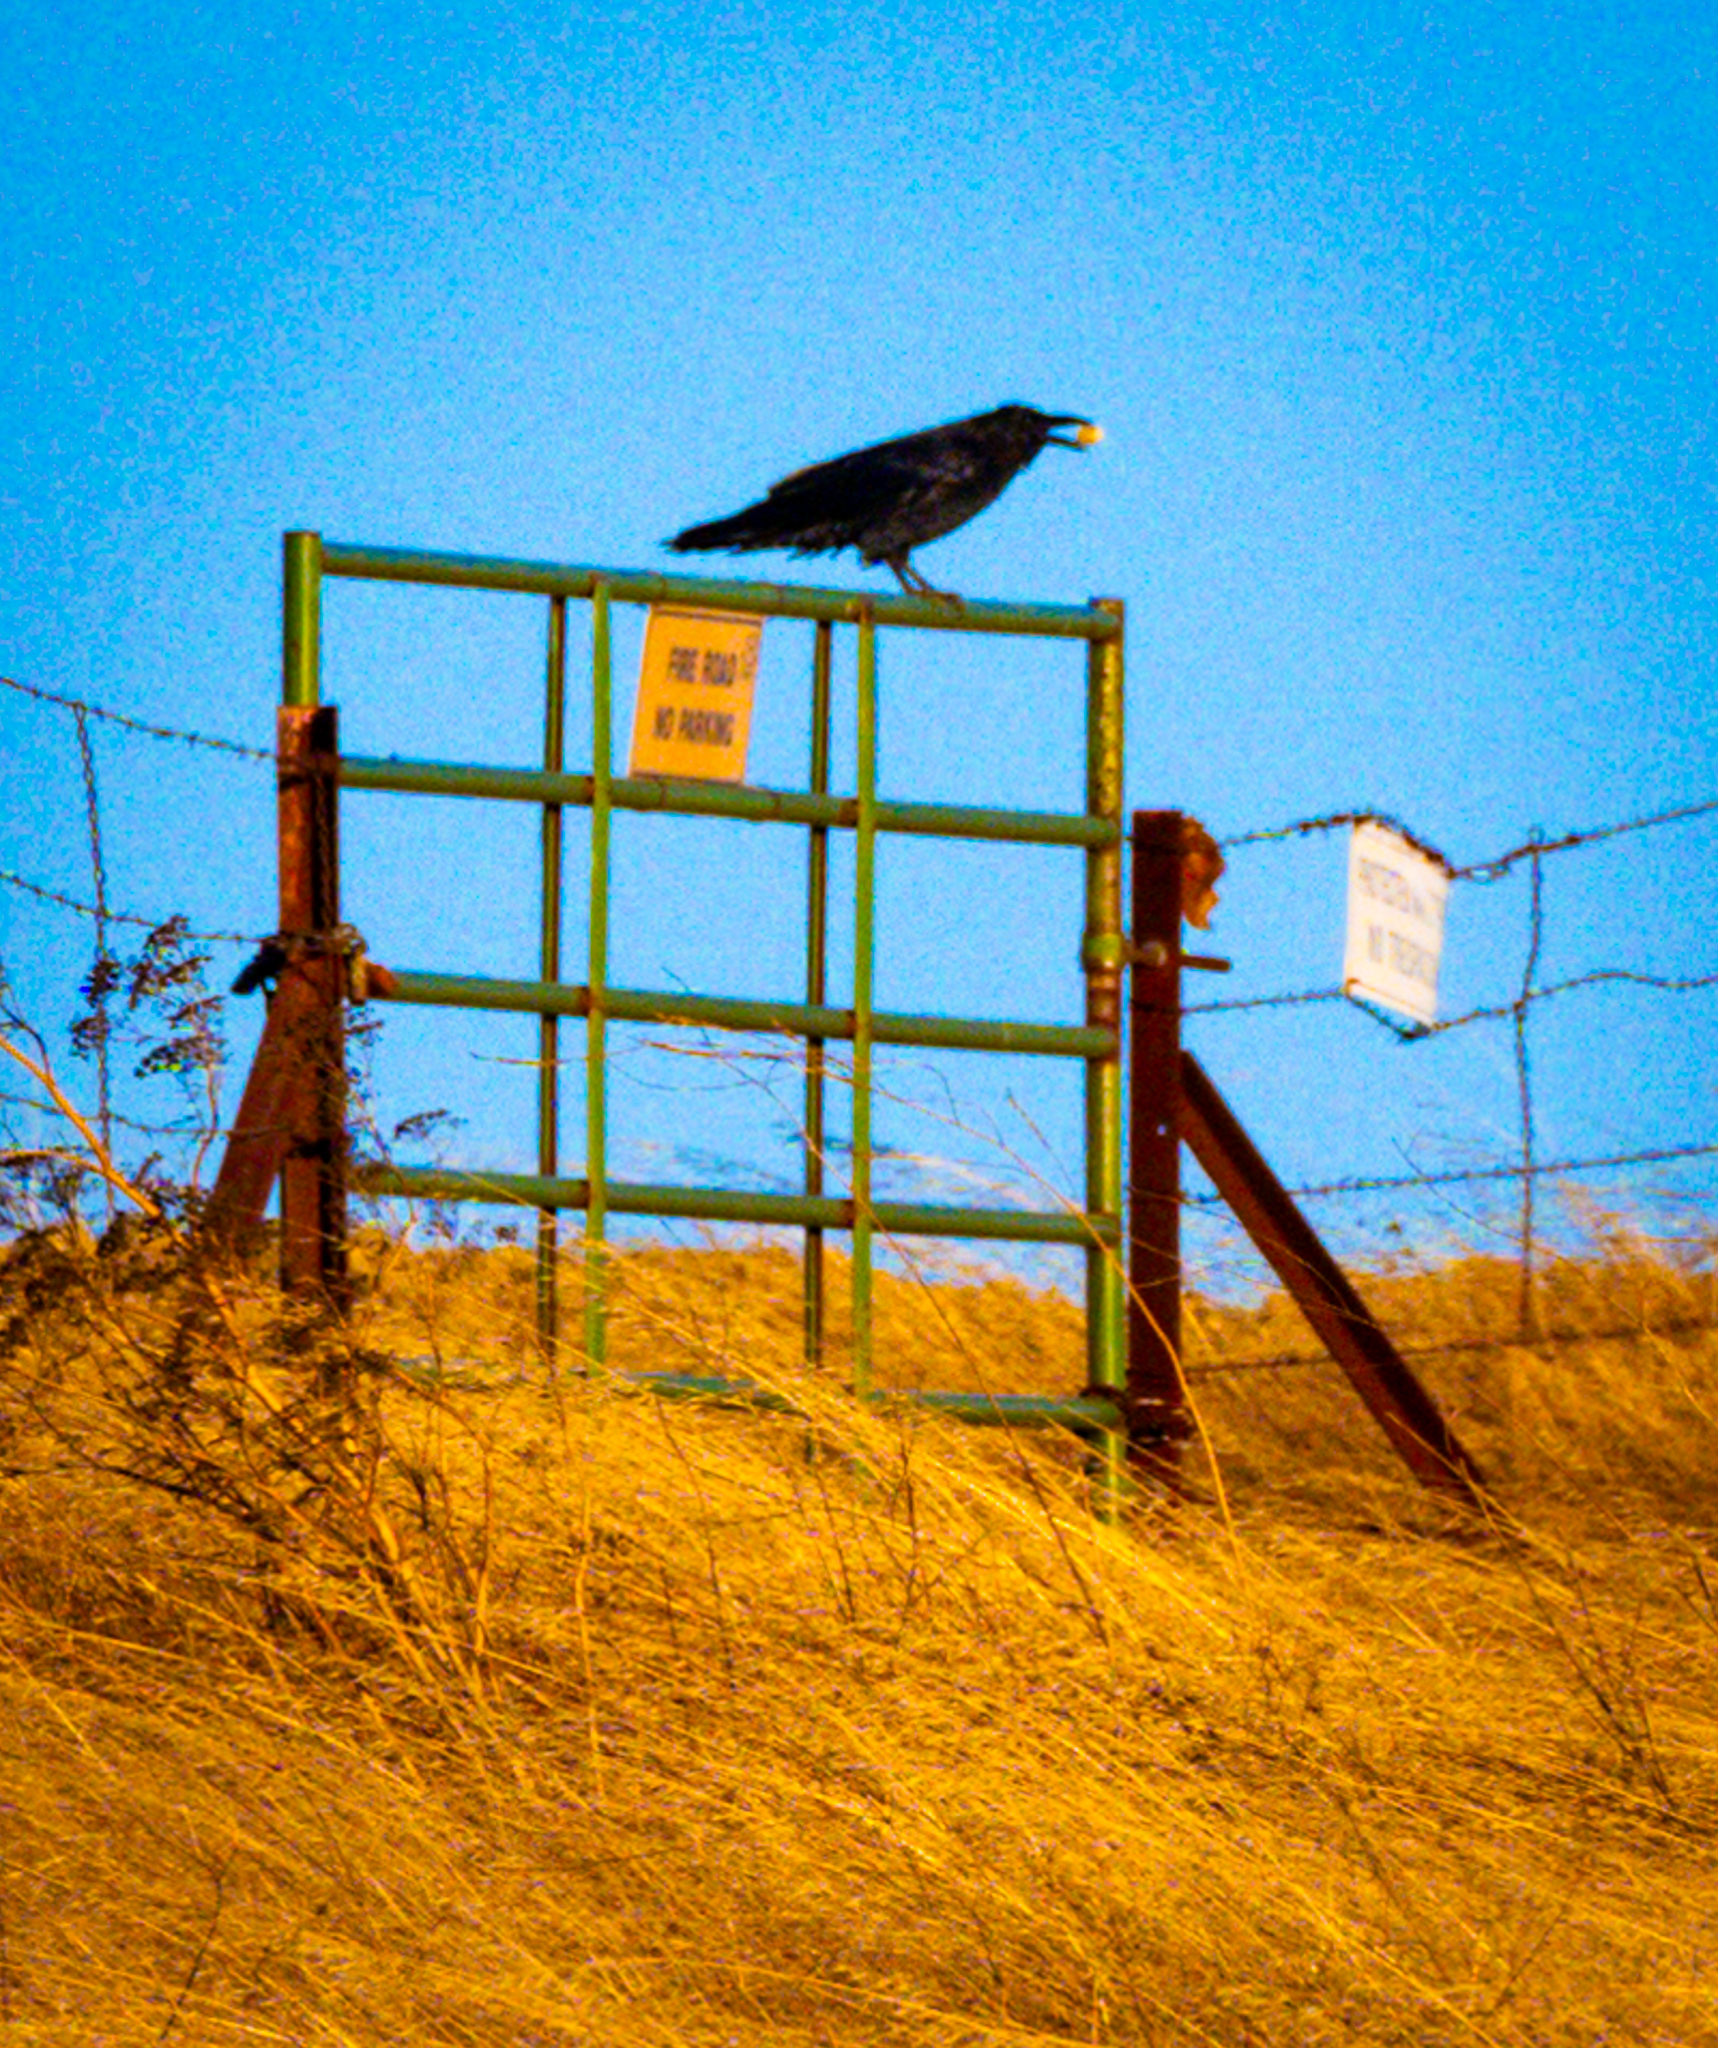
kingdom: Animalia
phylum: Chordata
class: Aves
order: Passeriformes
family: Corvidae
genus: Corvus
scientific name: Corvus corax
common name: Common raven
